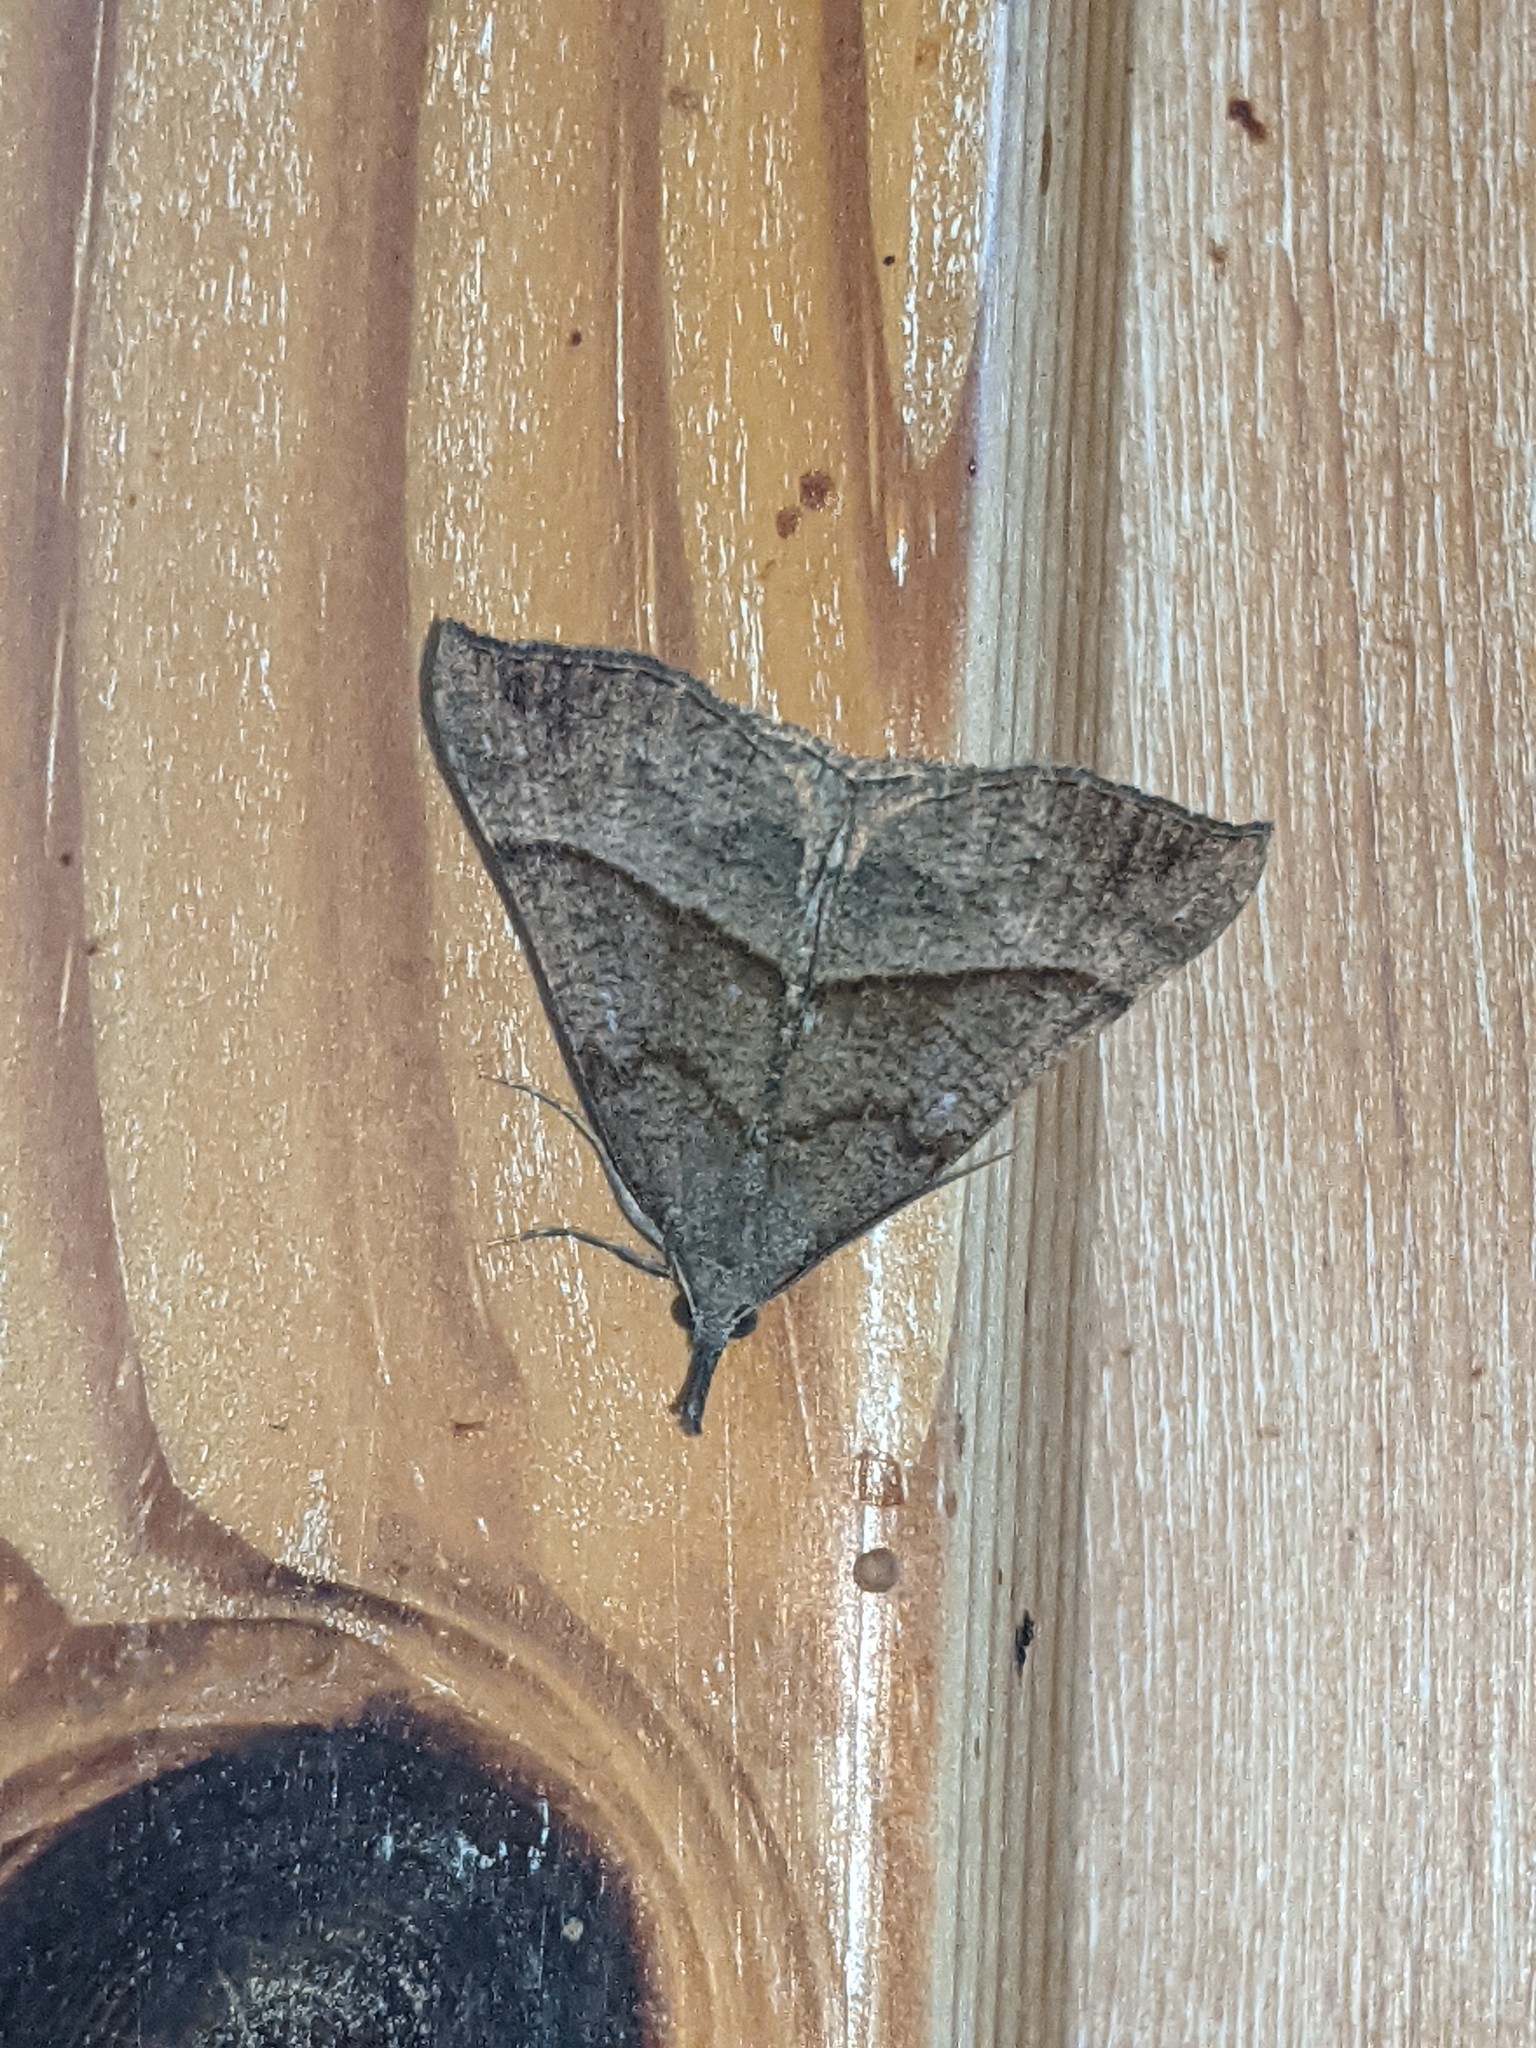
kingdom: Animalia
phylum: Arthropoda
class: Insecta
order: Lepidoptera
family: Erebidae
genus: Hypena
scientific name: Hypena proboscidalis
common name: Snout
